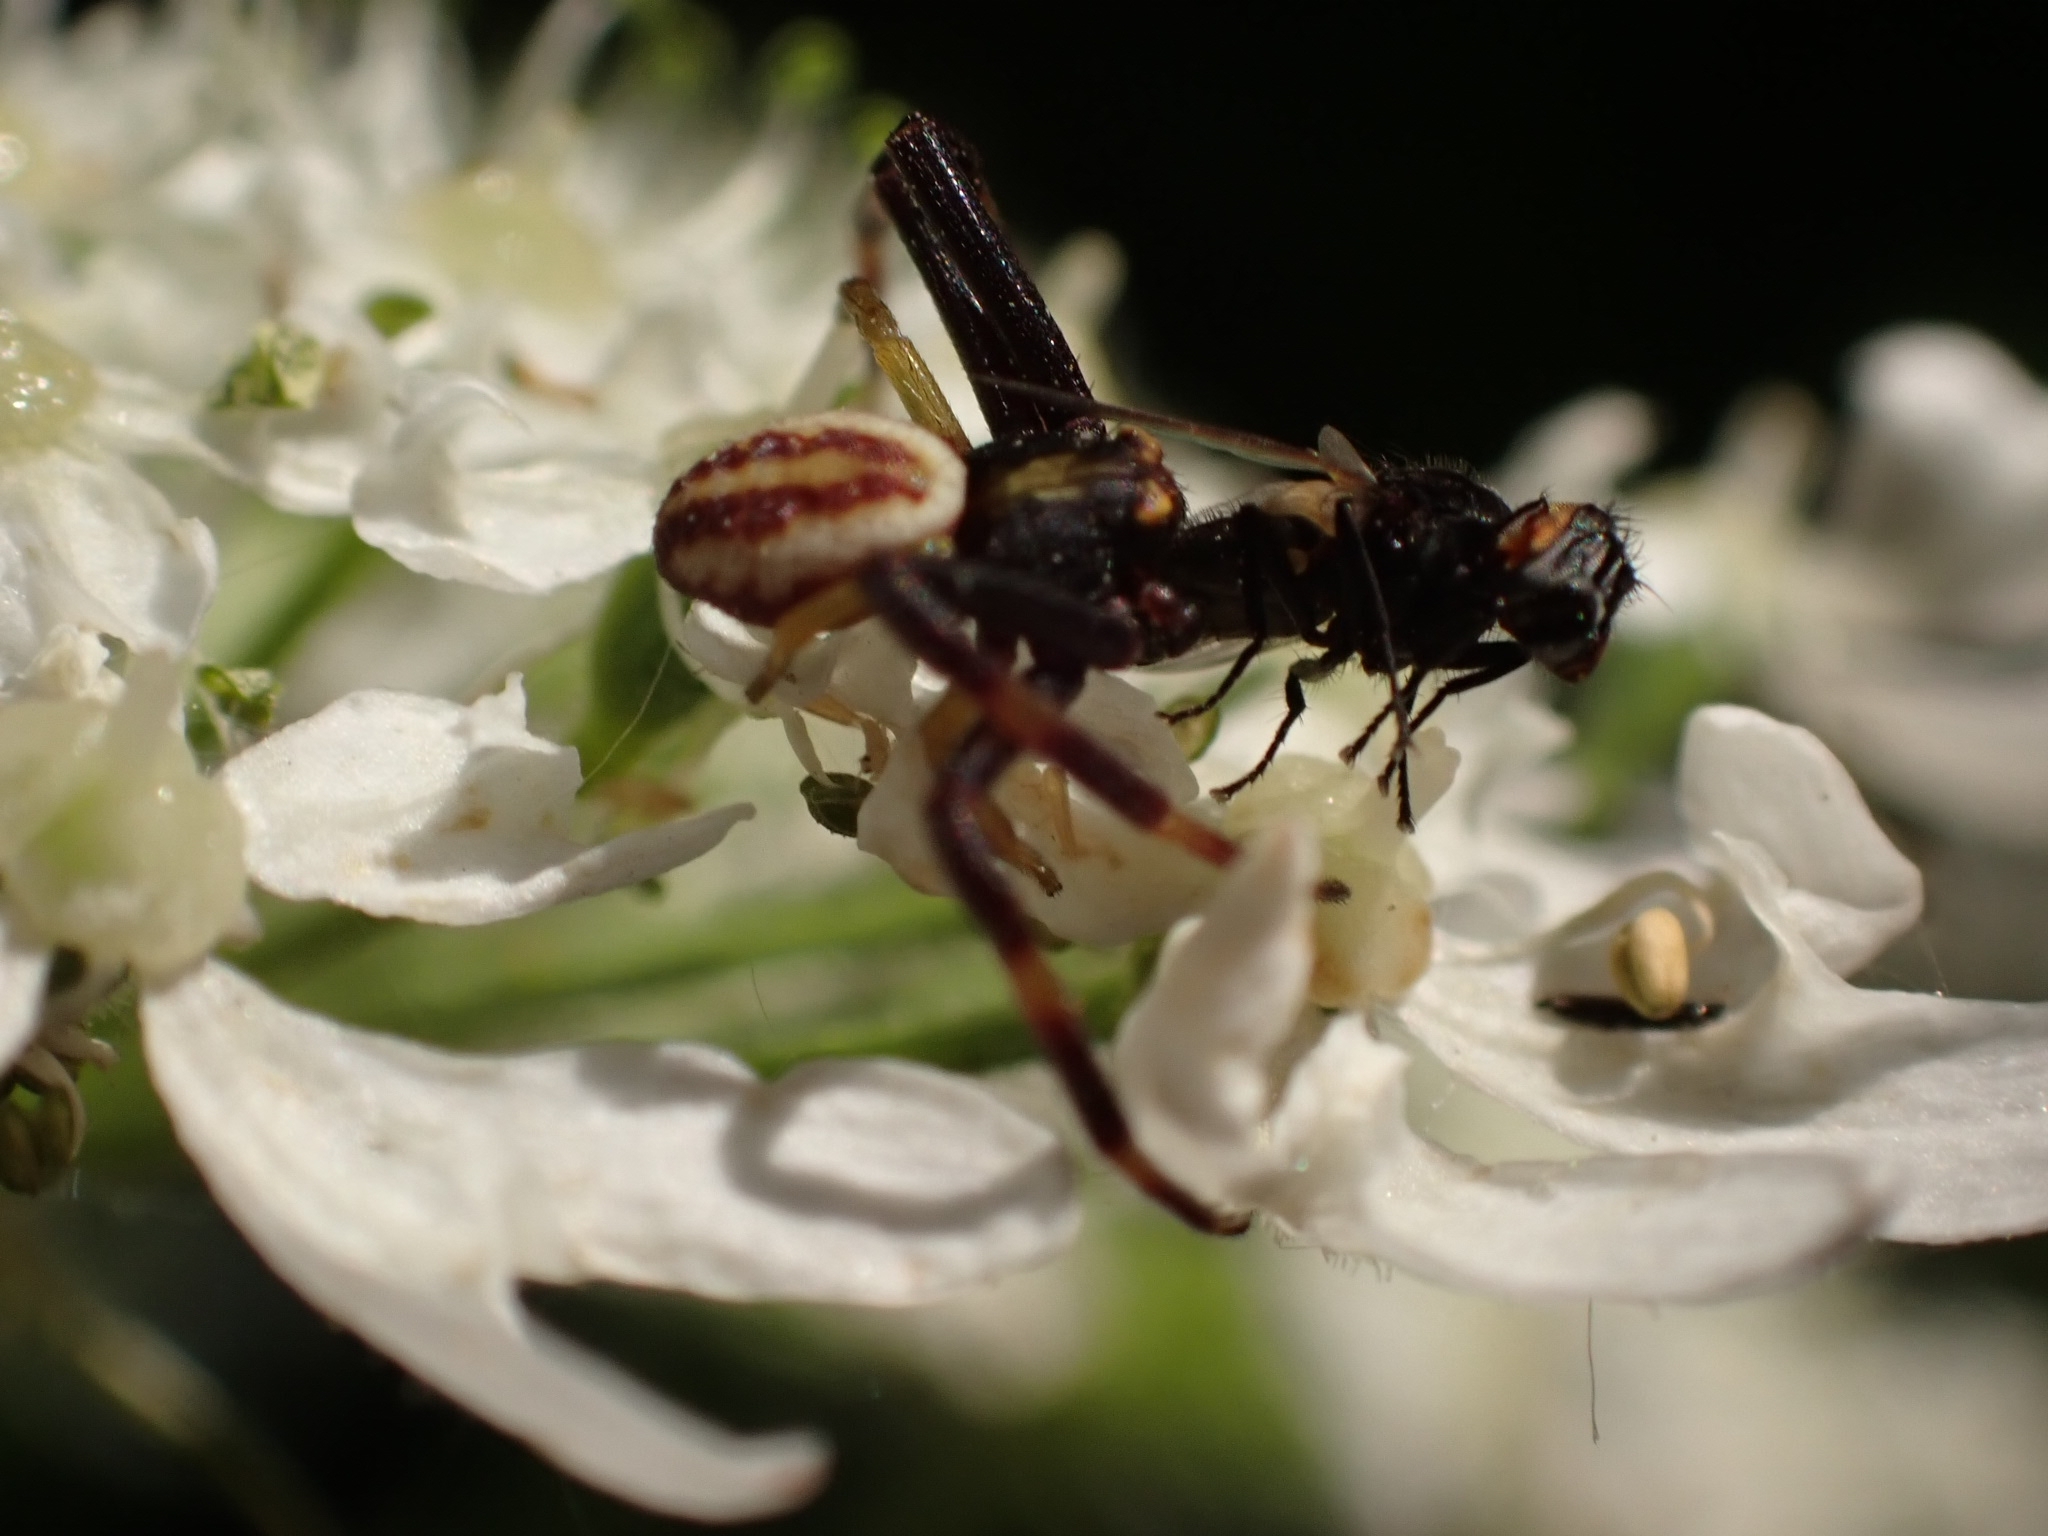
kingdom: Animalia
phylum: Arthropoda
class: Arachnida
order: Araneae
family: Thomisidae
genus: Misumena
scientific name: Misumena vatia
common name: Goldenrod crab spider
